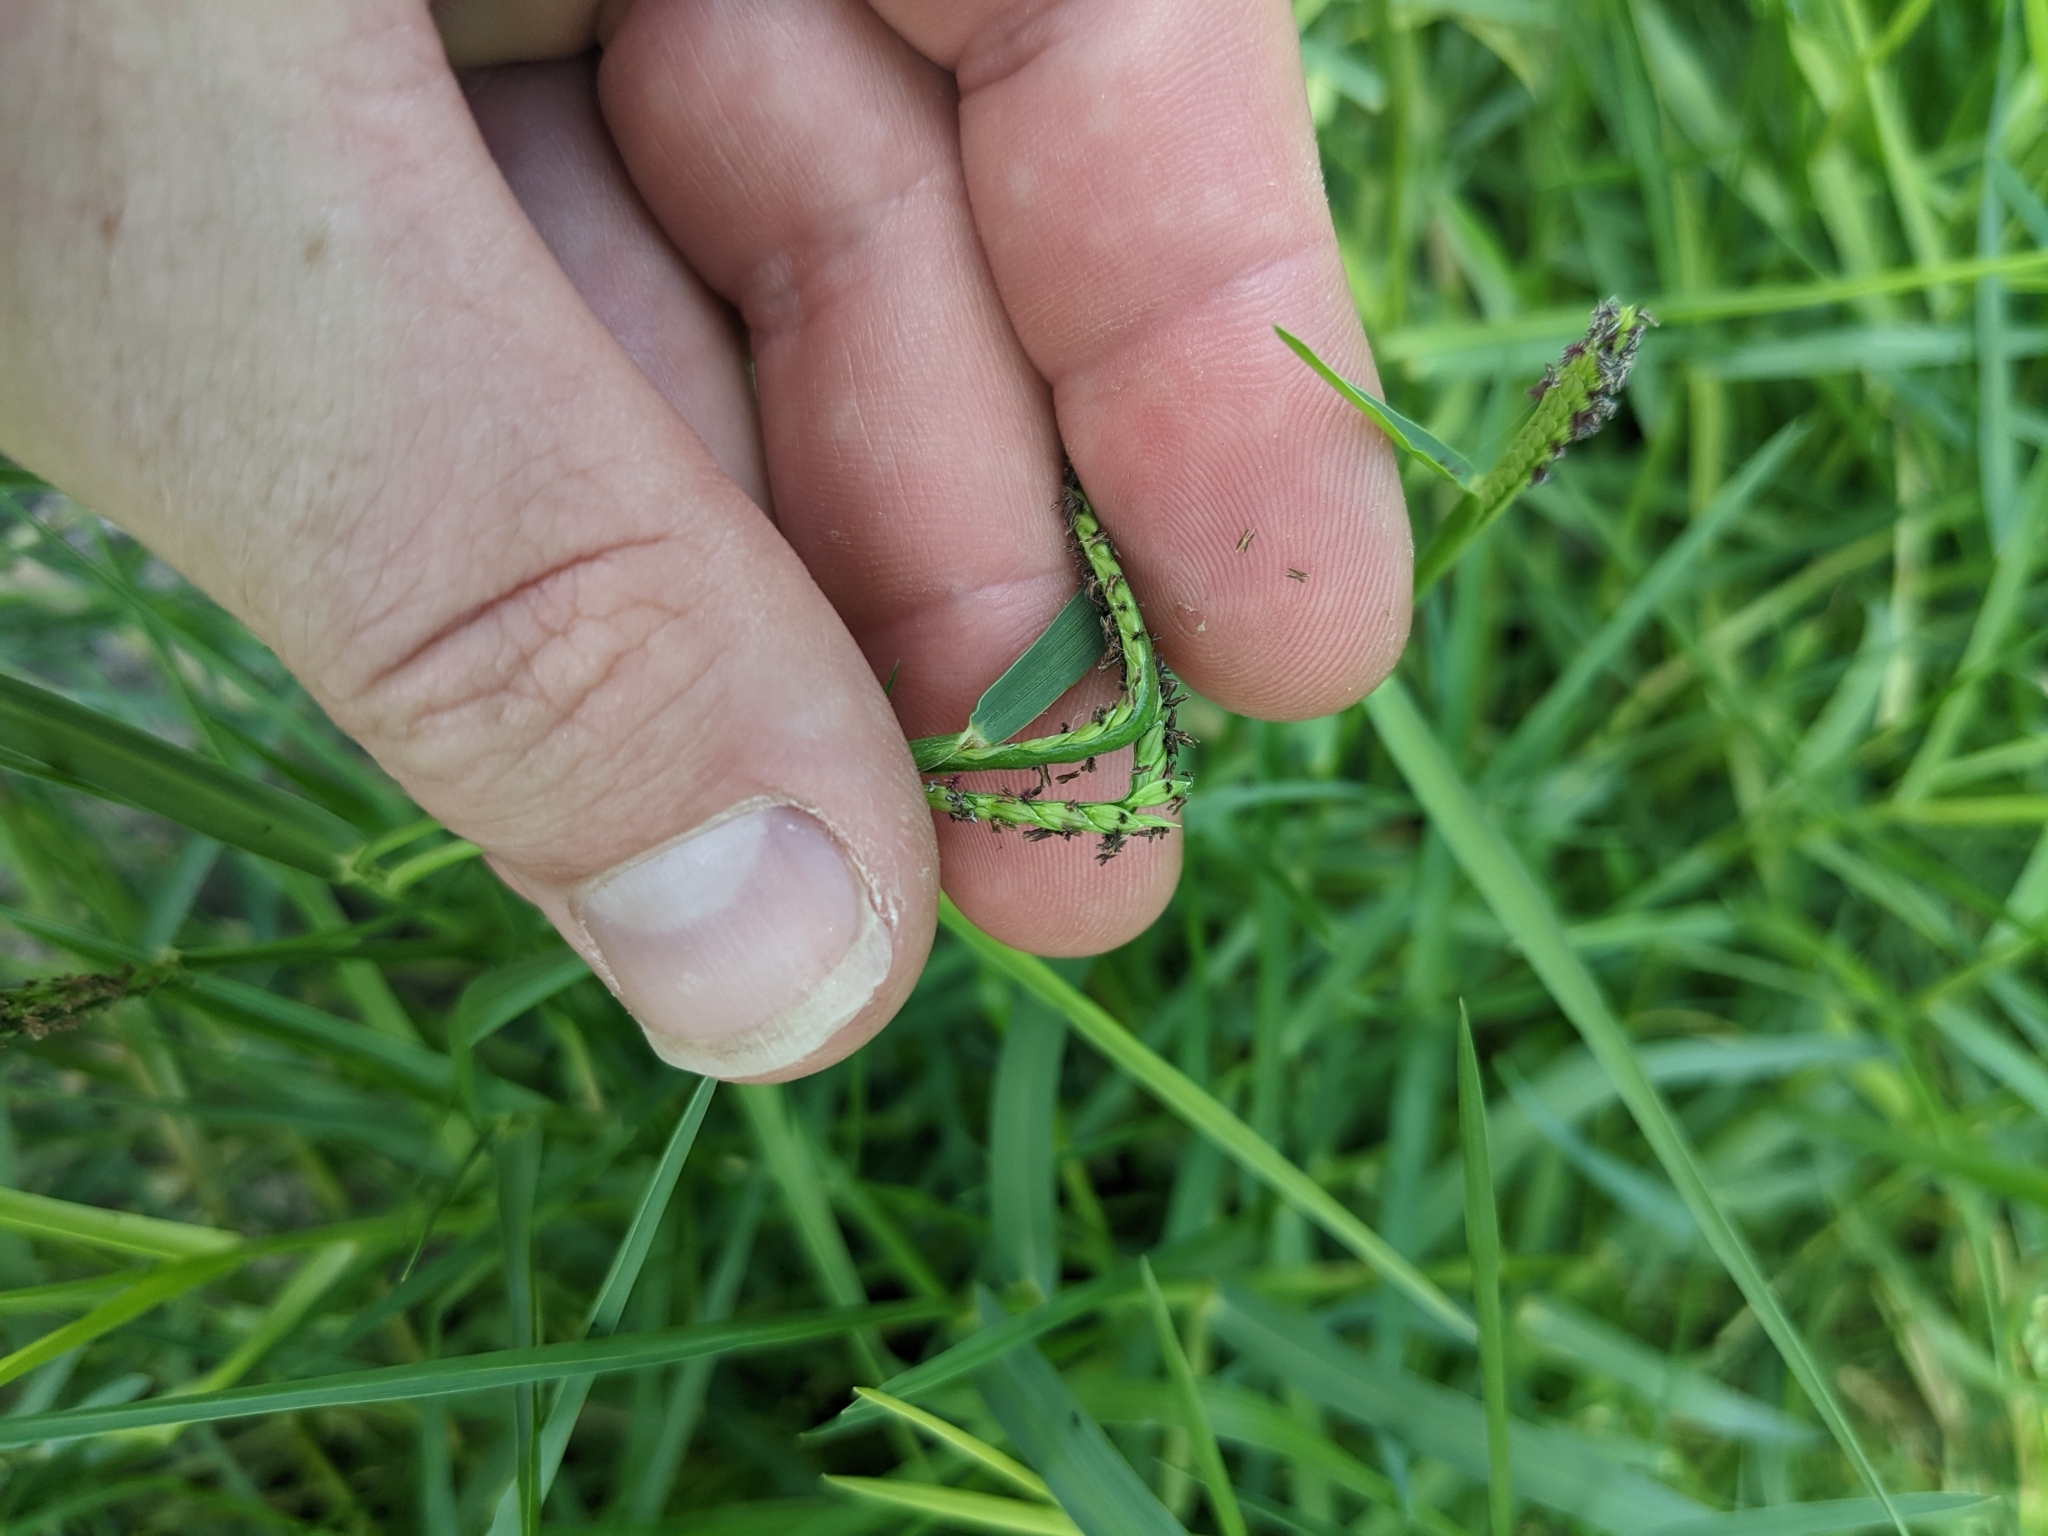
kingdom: Plantae
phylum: Tracheophyta
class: Liliopsida
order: Poales
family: Poaceae
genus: Paspalum
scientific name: Paspalum distichum
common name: Knotgrass
